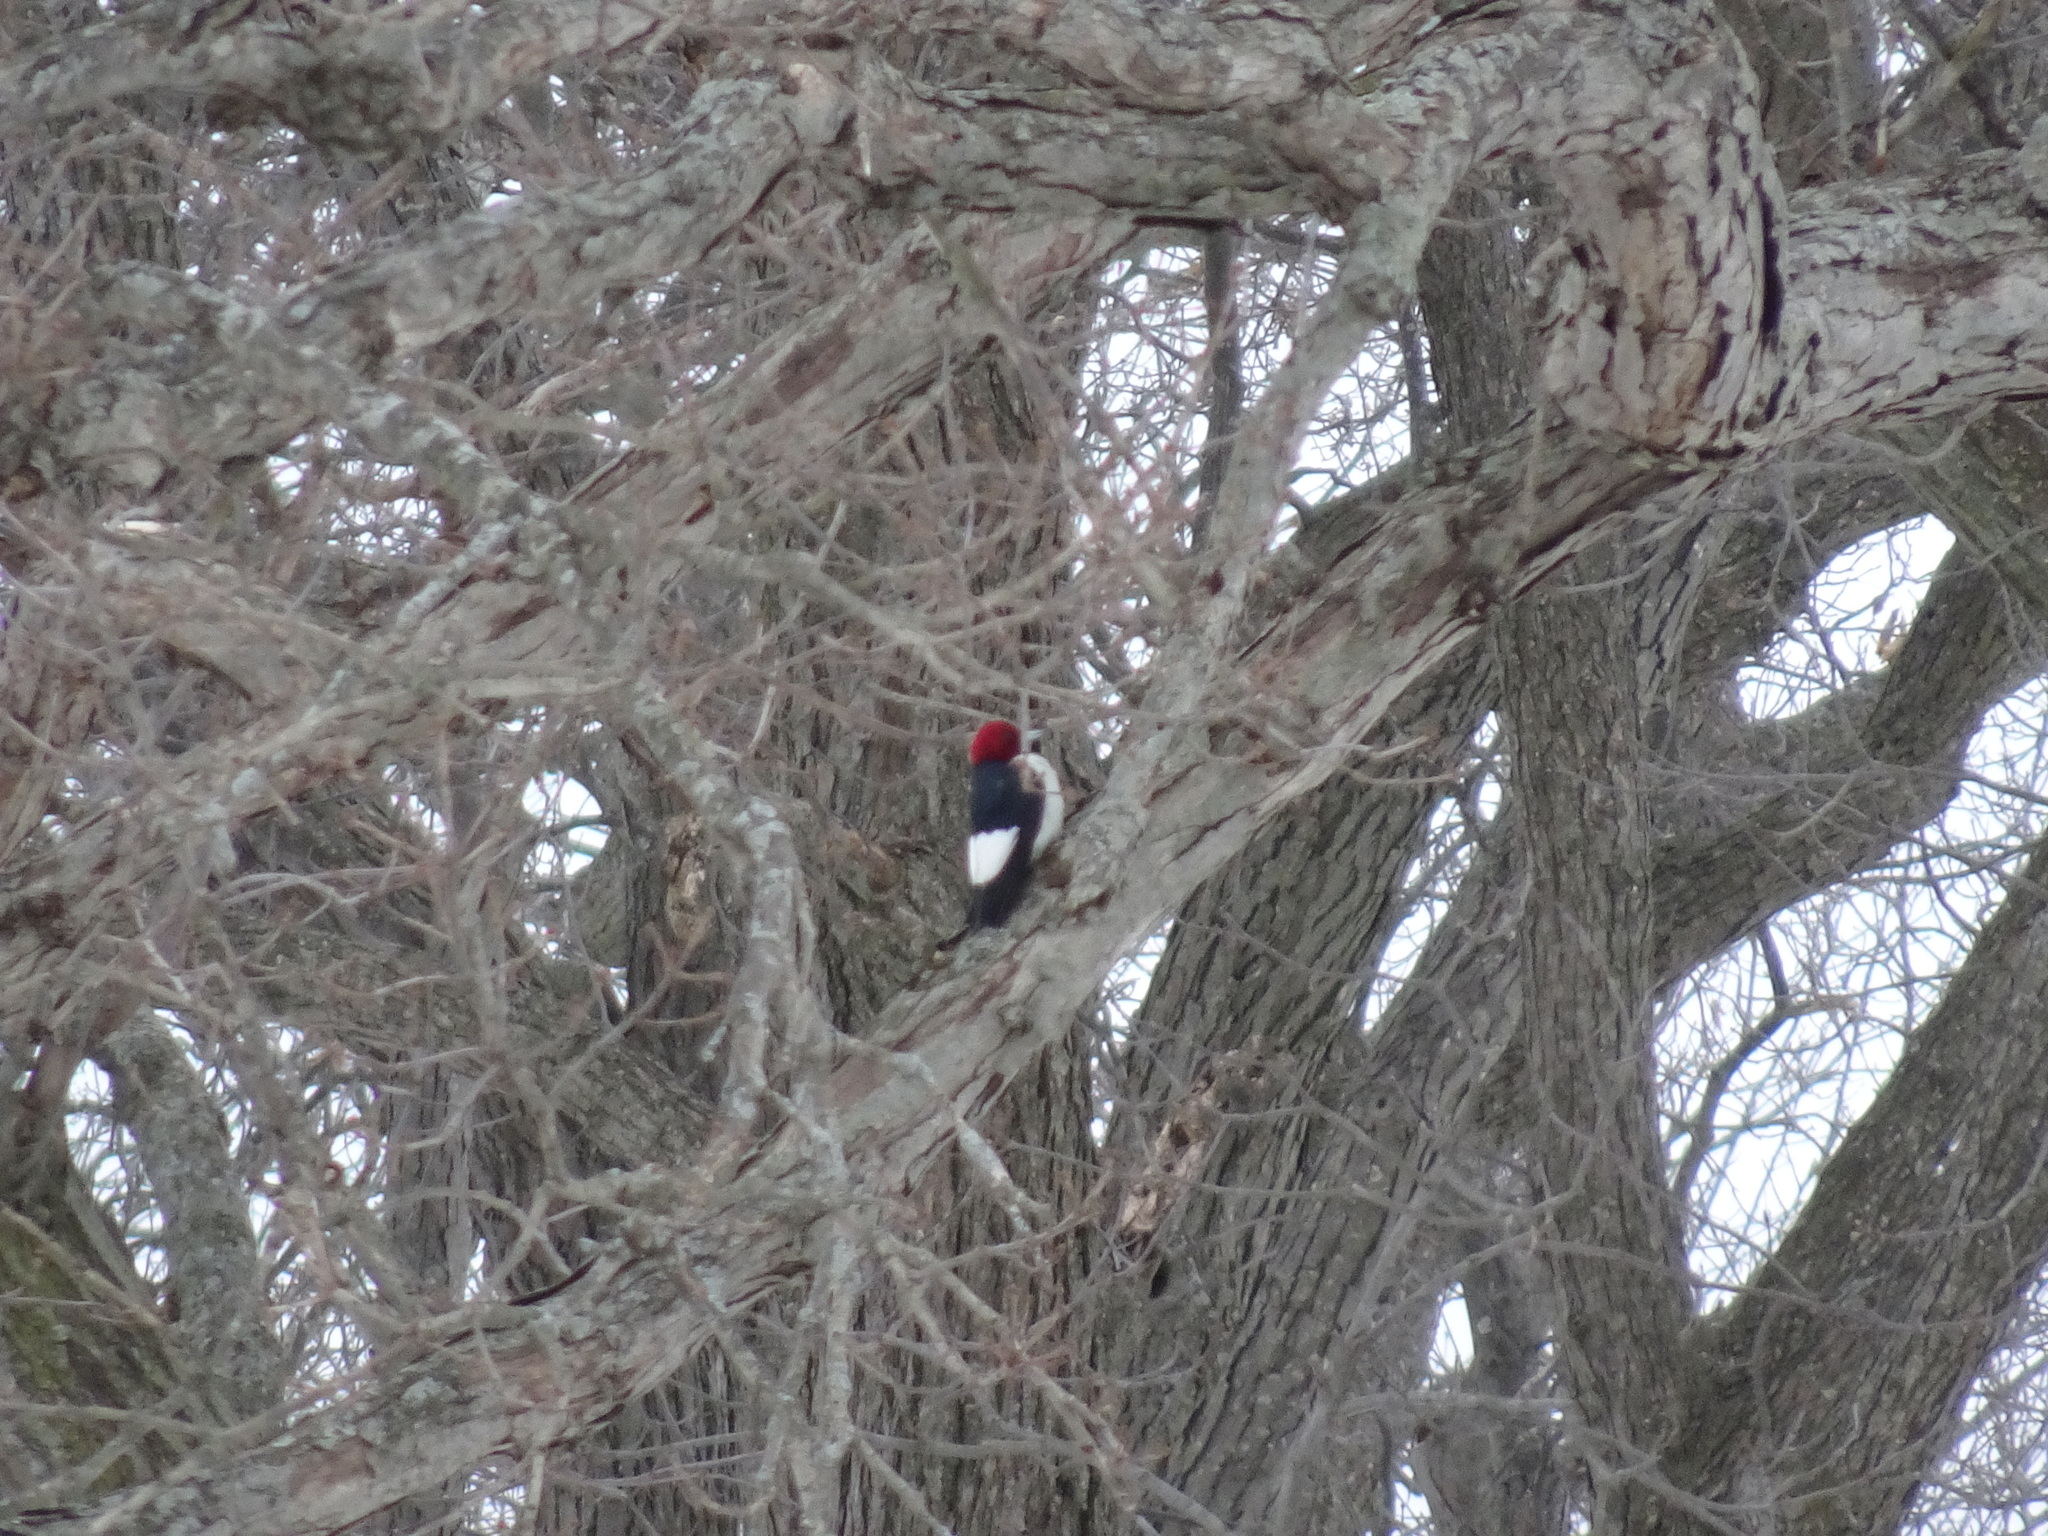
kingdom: Animalia
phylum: Chordata
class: Aves
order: Piciformes
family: Picidae
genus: Melanerpes
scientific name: Melanerpes erythrocephalus
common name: Red-headed woodpecker
